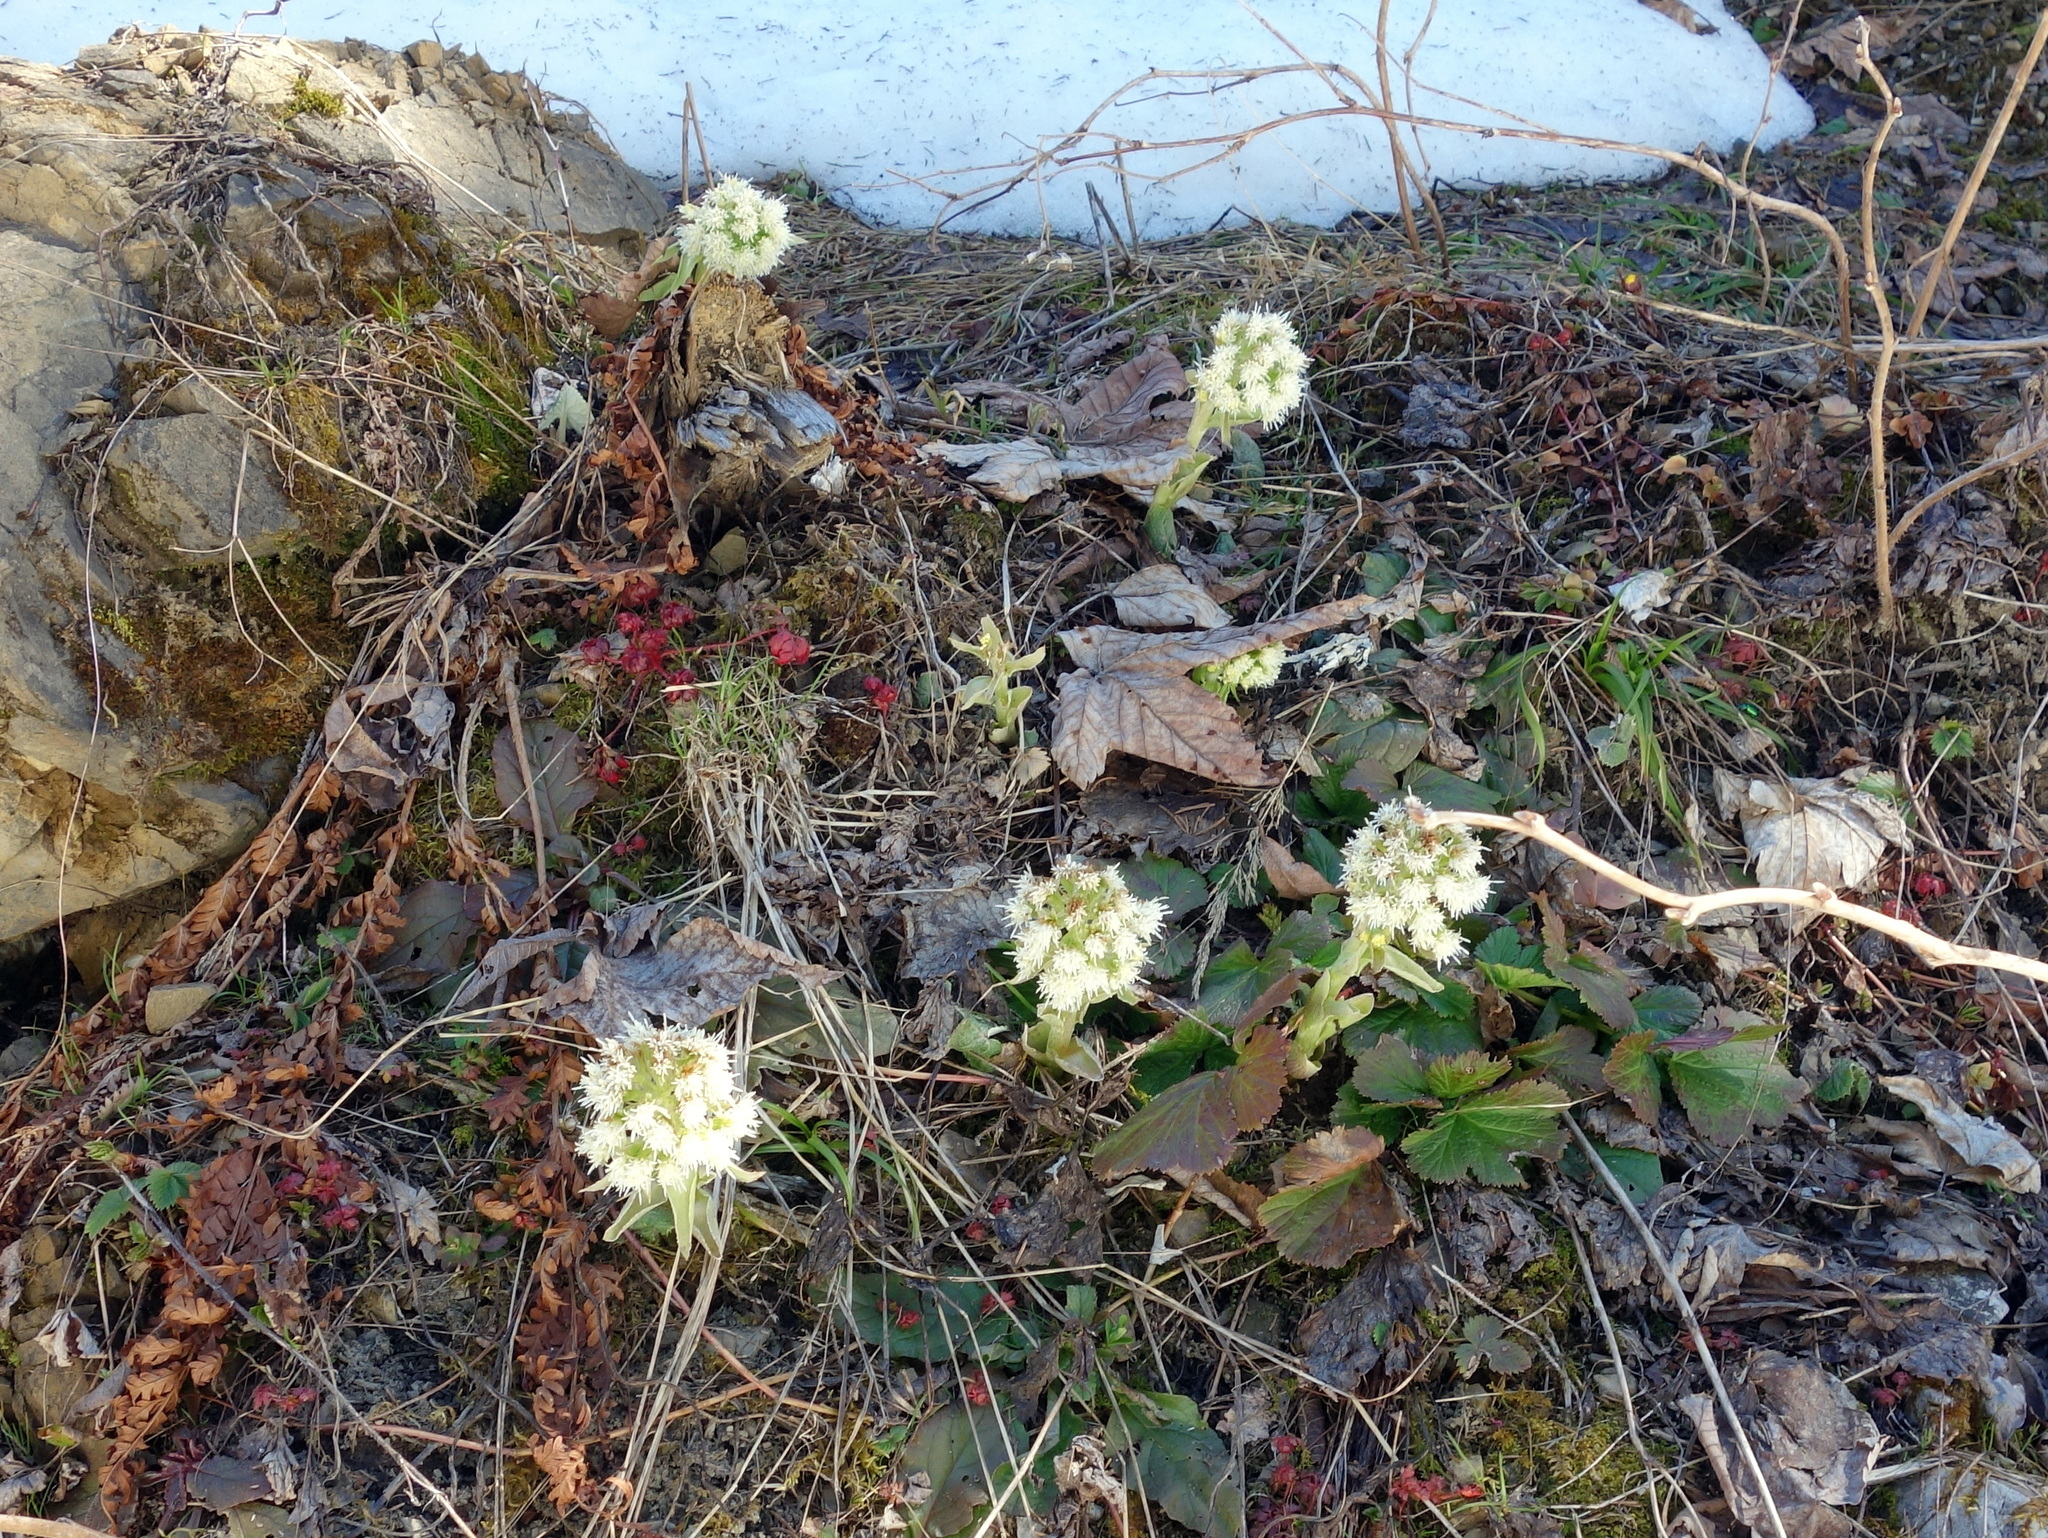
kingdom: Plantae
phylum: Tracheophyta
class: Magnoliopsida
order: Asterales
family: Asteraceae
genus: Petasites
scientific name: Petasites albus
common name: White butterbur
